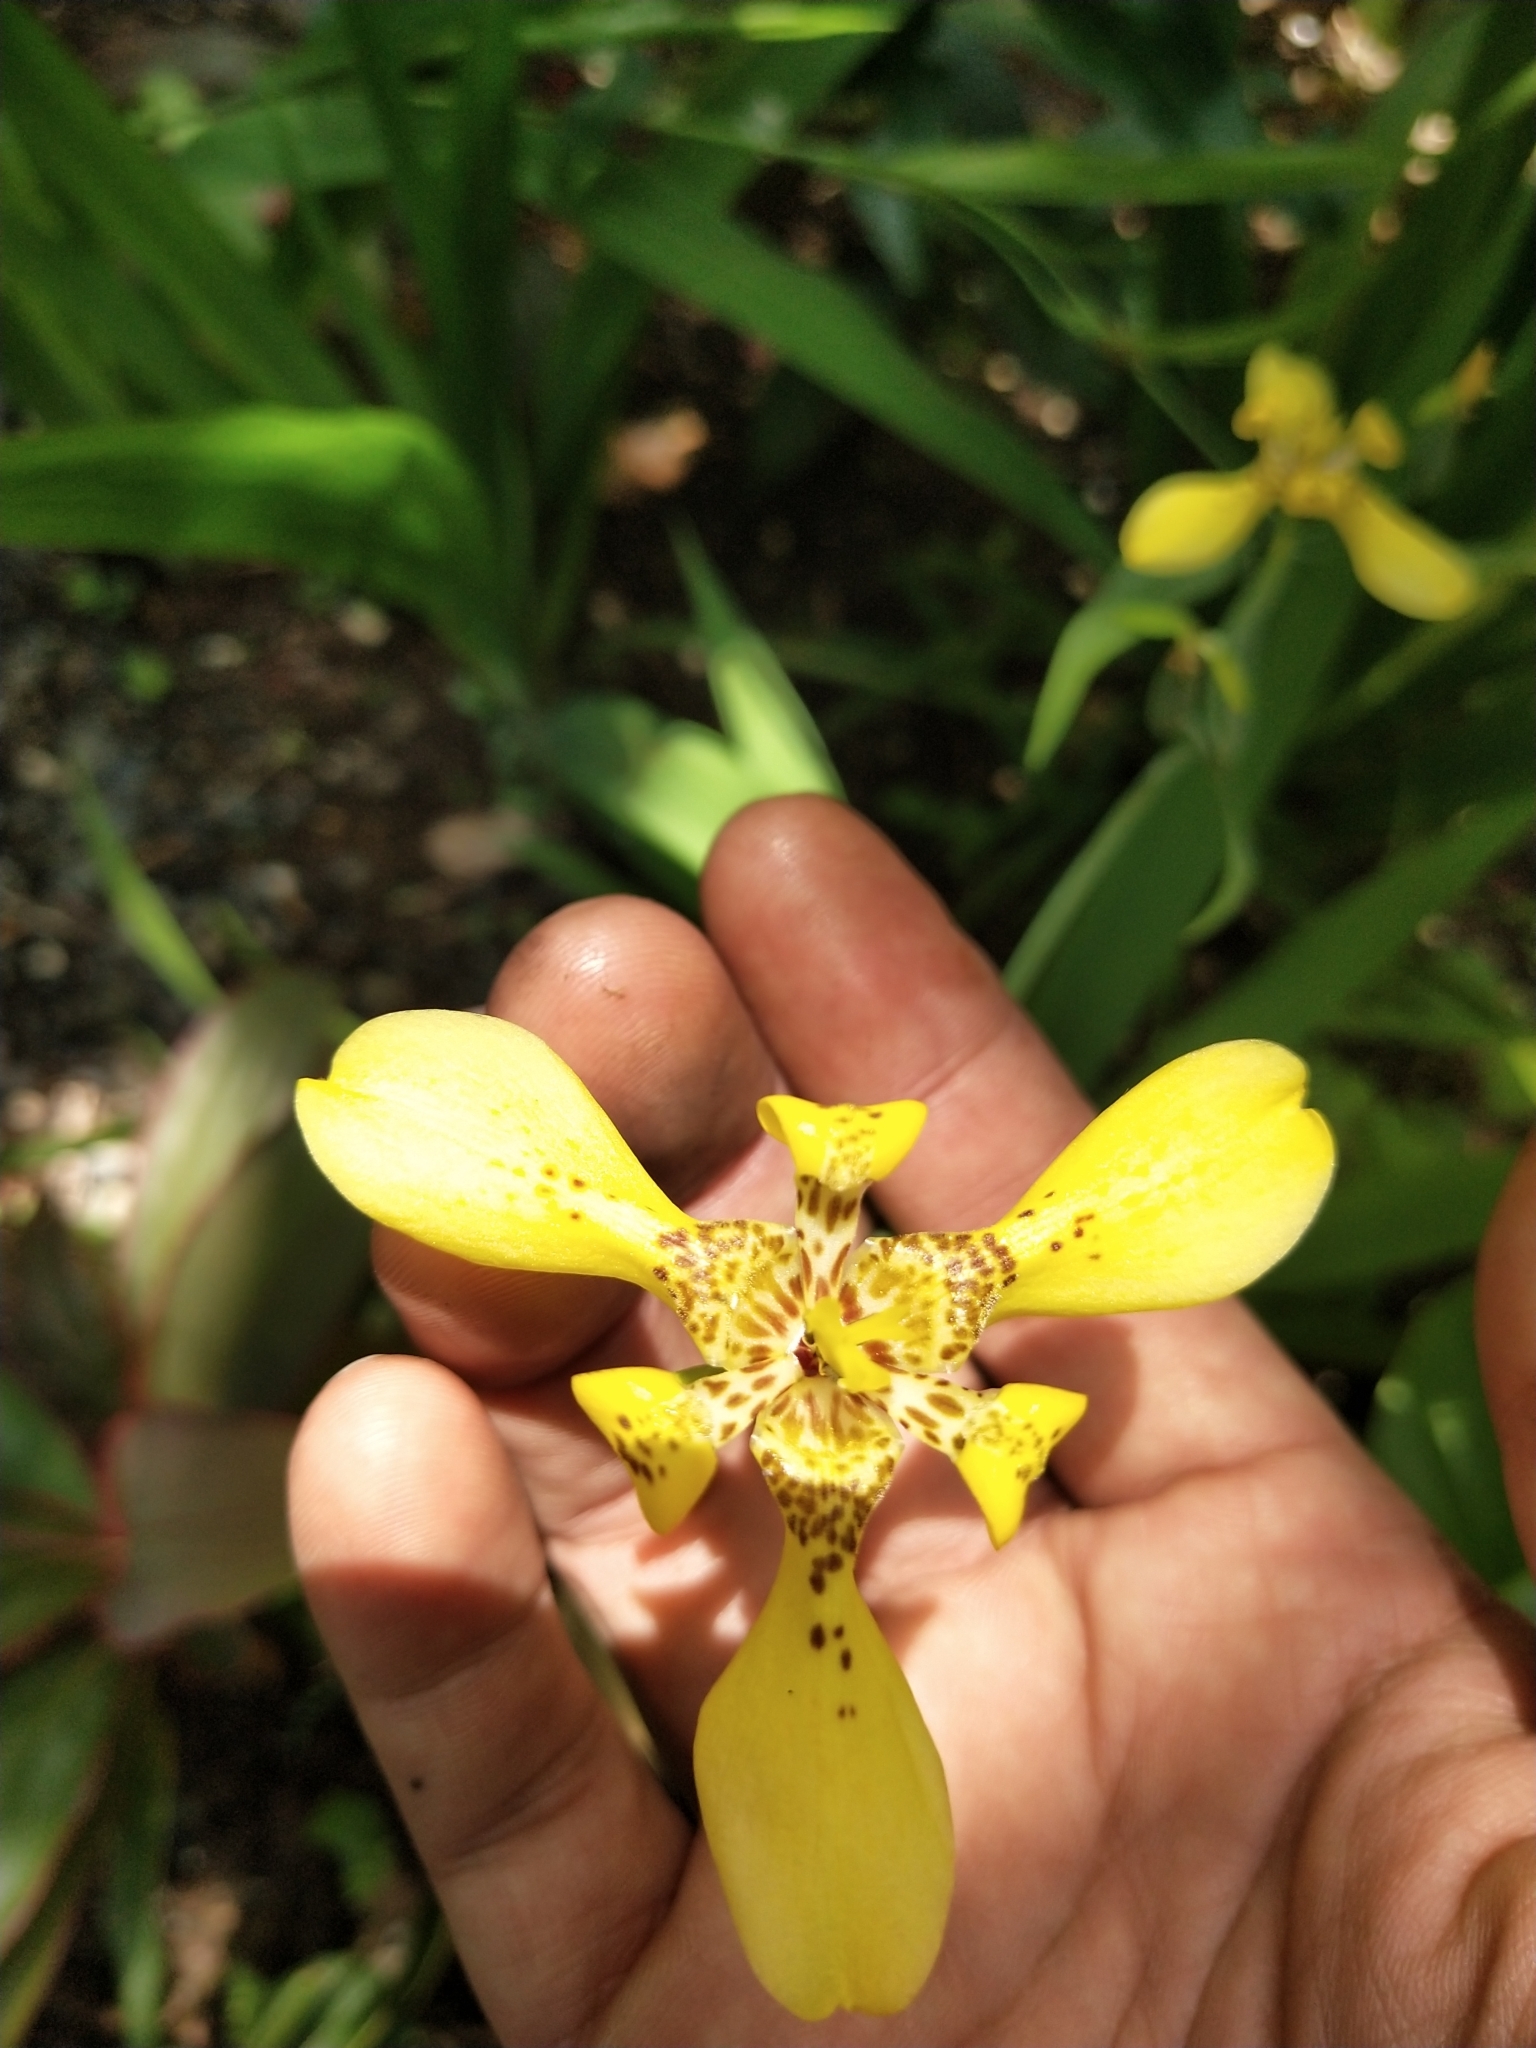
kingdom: Plantae
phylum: Tracheophyta
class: Liliopsida
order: Asparagales
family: Iridaceae
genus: Trimezia
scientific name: Trimezia steyermarkii
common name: Trimezia
